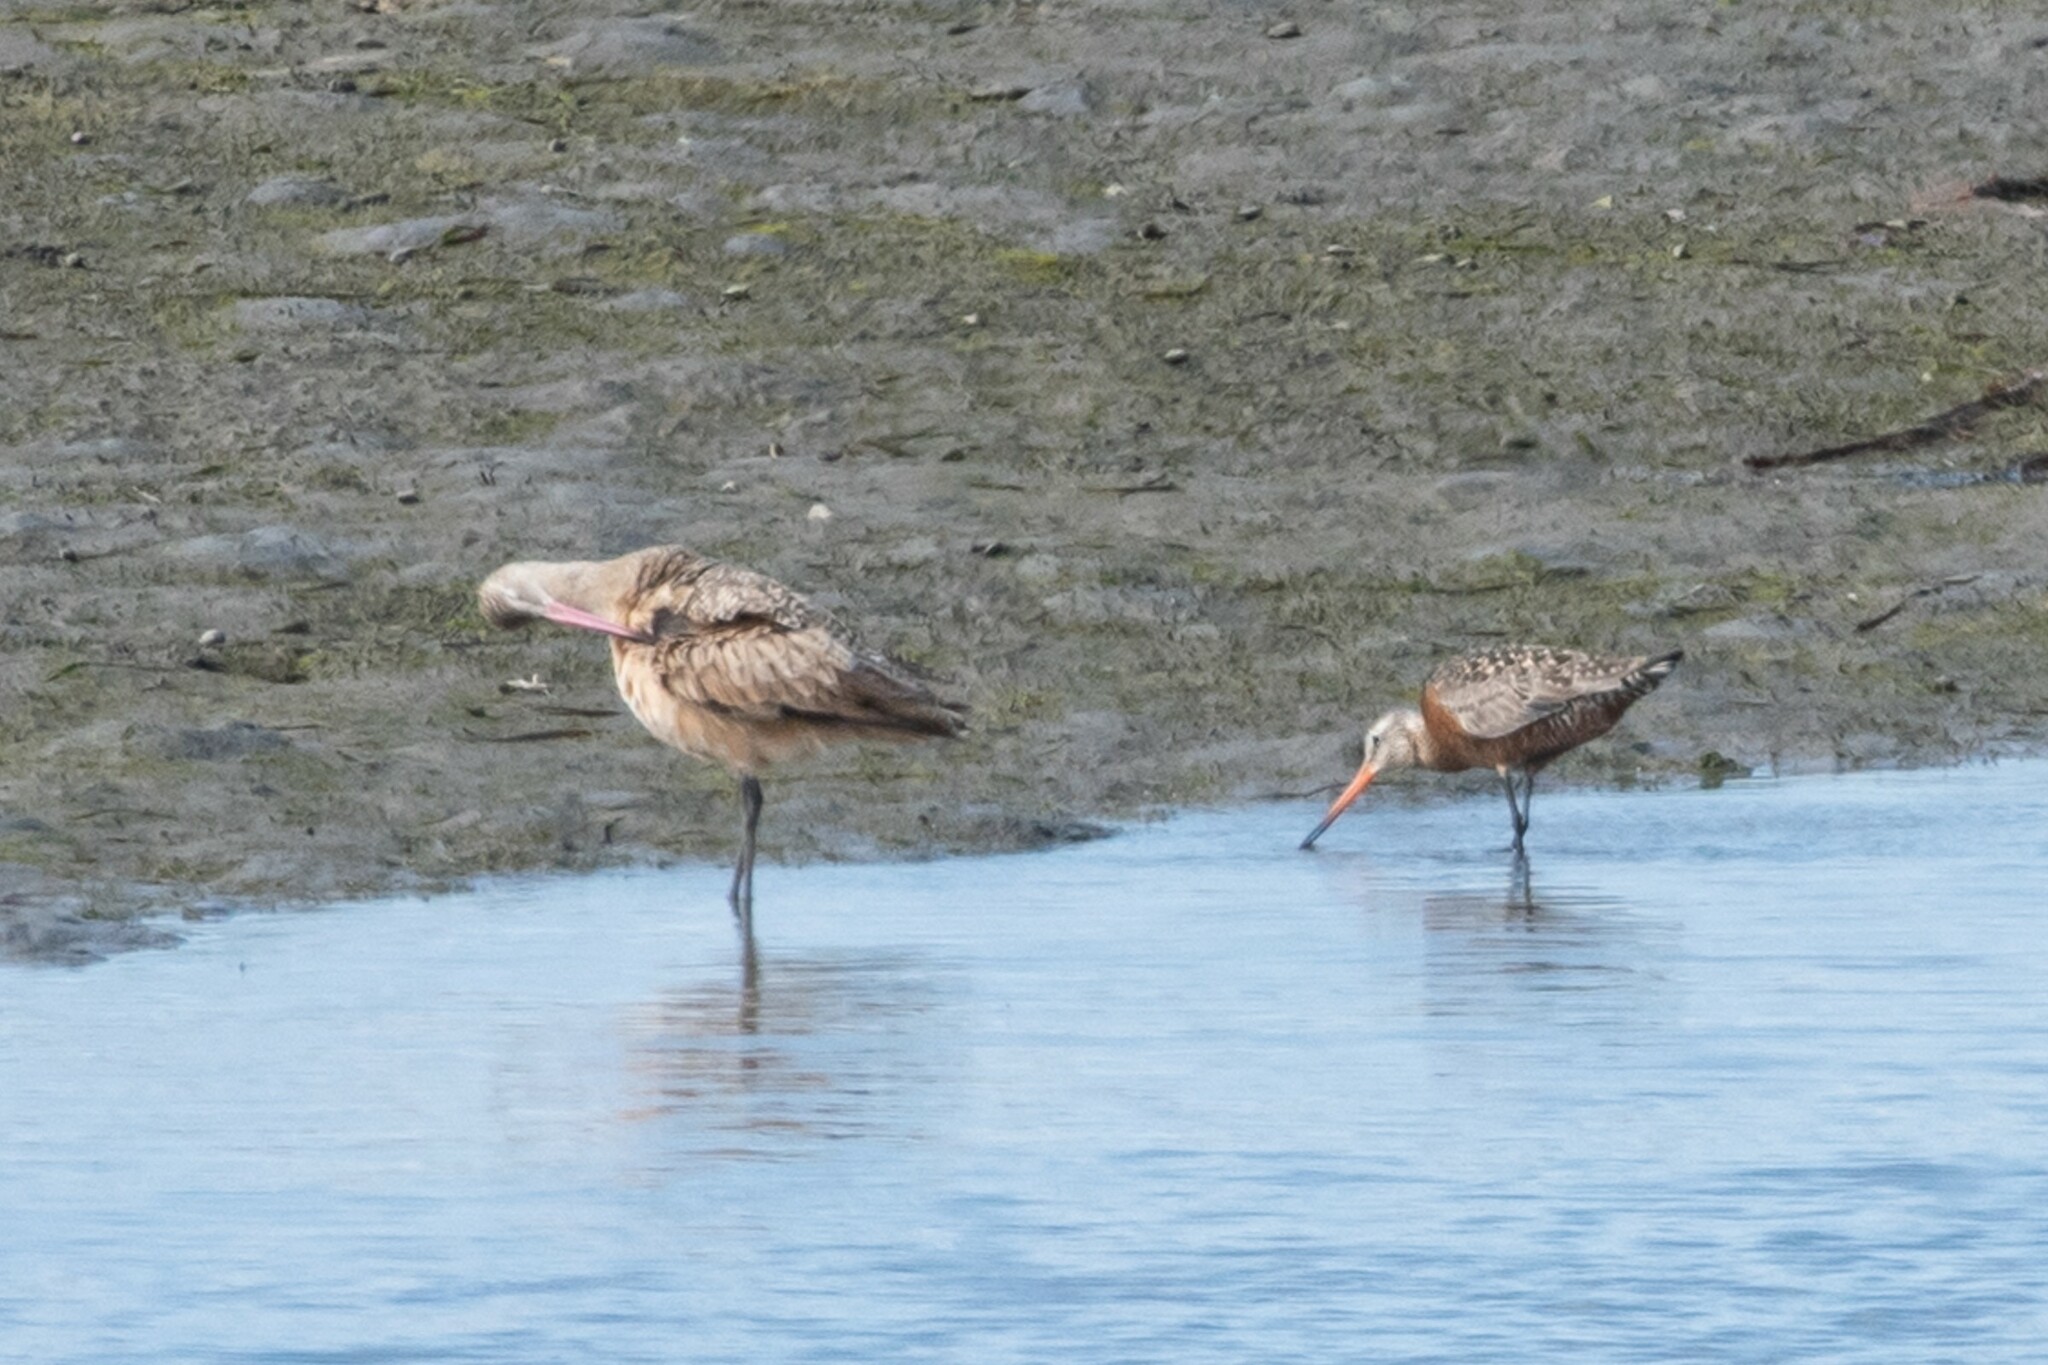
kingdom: Animalia
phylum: Chordata
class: Aves
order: Charadriiformes
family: Scolopacidae
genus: Limosa
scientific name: Limosa haemastica
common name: Hudsonian godwit
